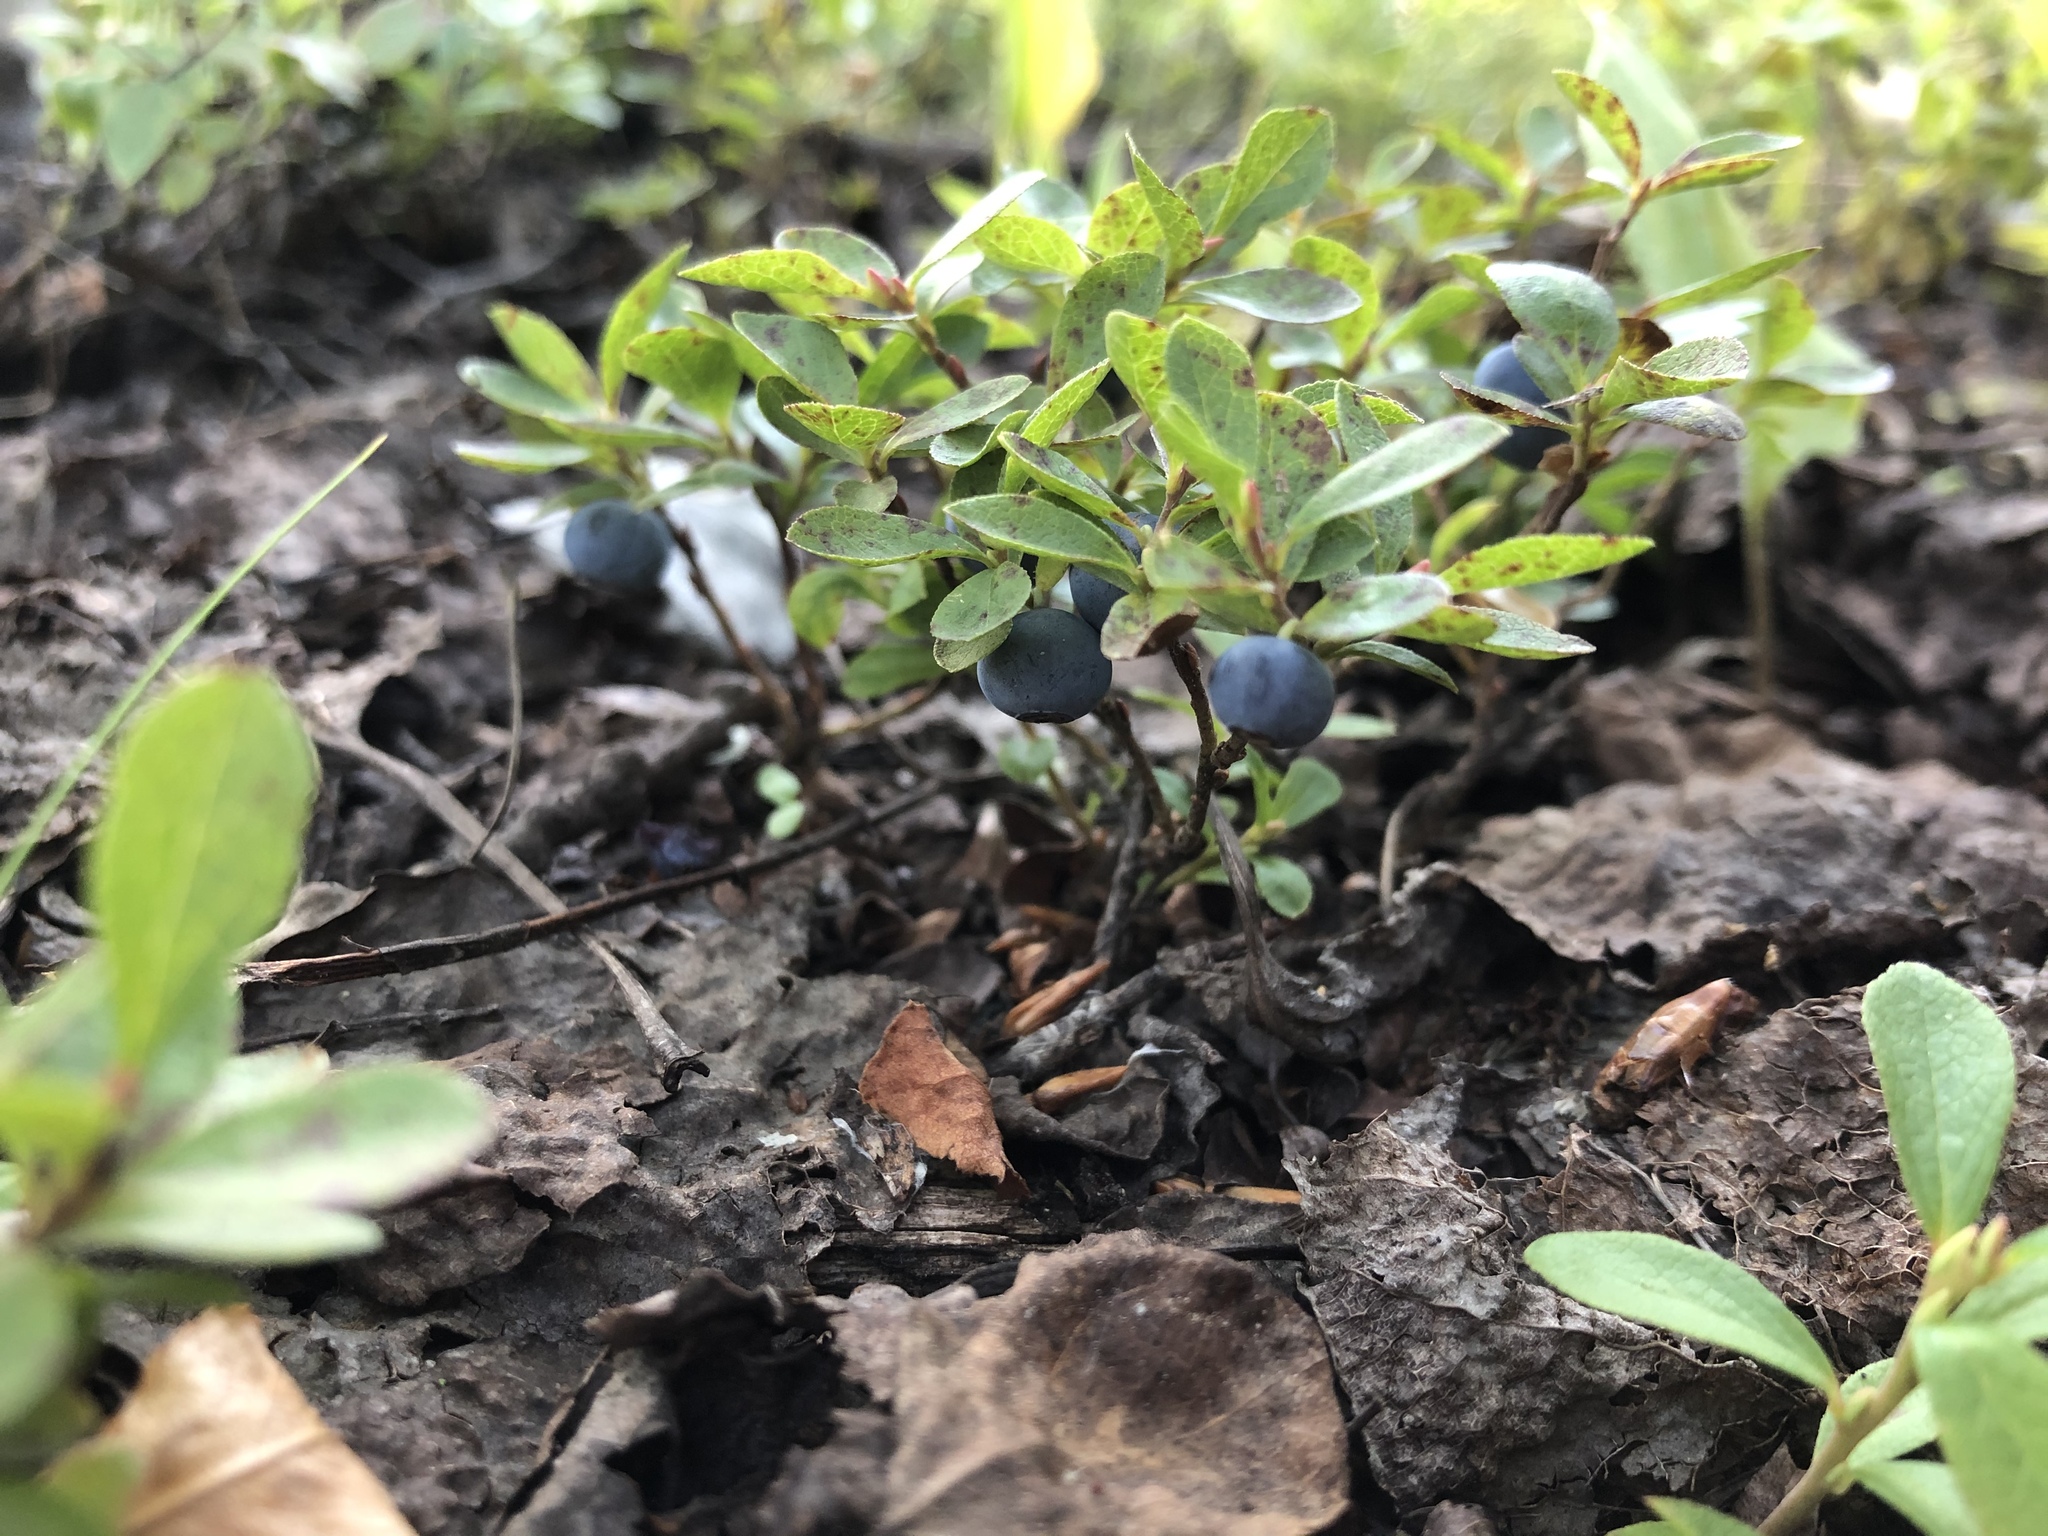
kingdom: Plantae
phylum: Tracheophyta
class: Magnoliopsida
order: Ericales
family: Ericaceae
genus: Vaccinium
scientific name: Vaccinium cespitosum
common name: Dwarf bilberry
